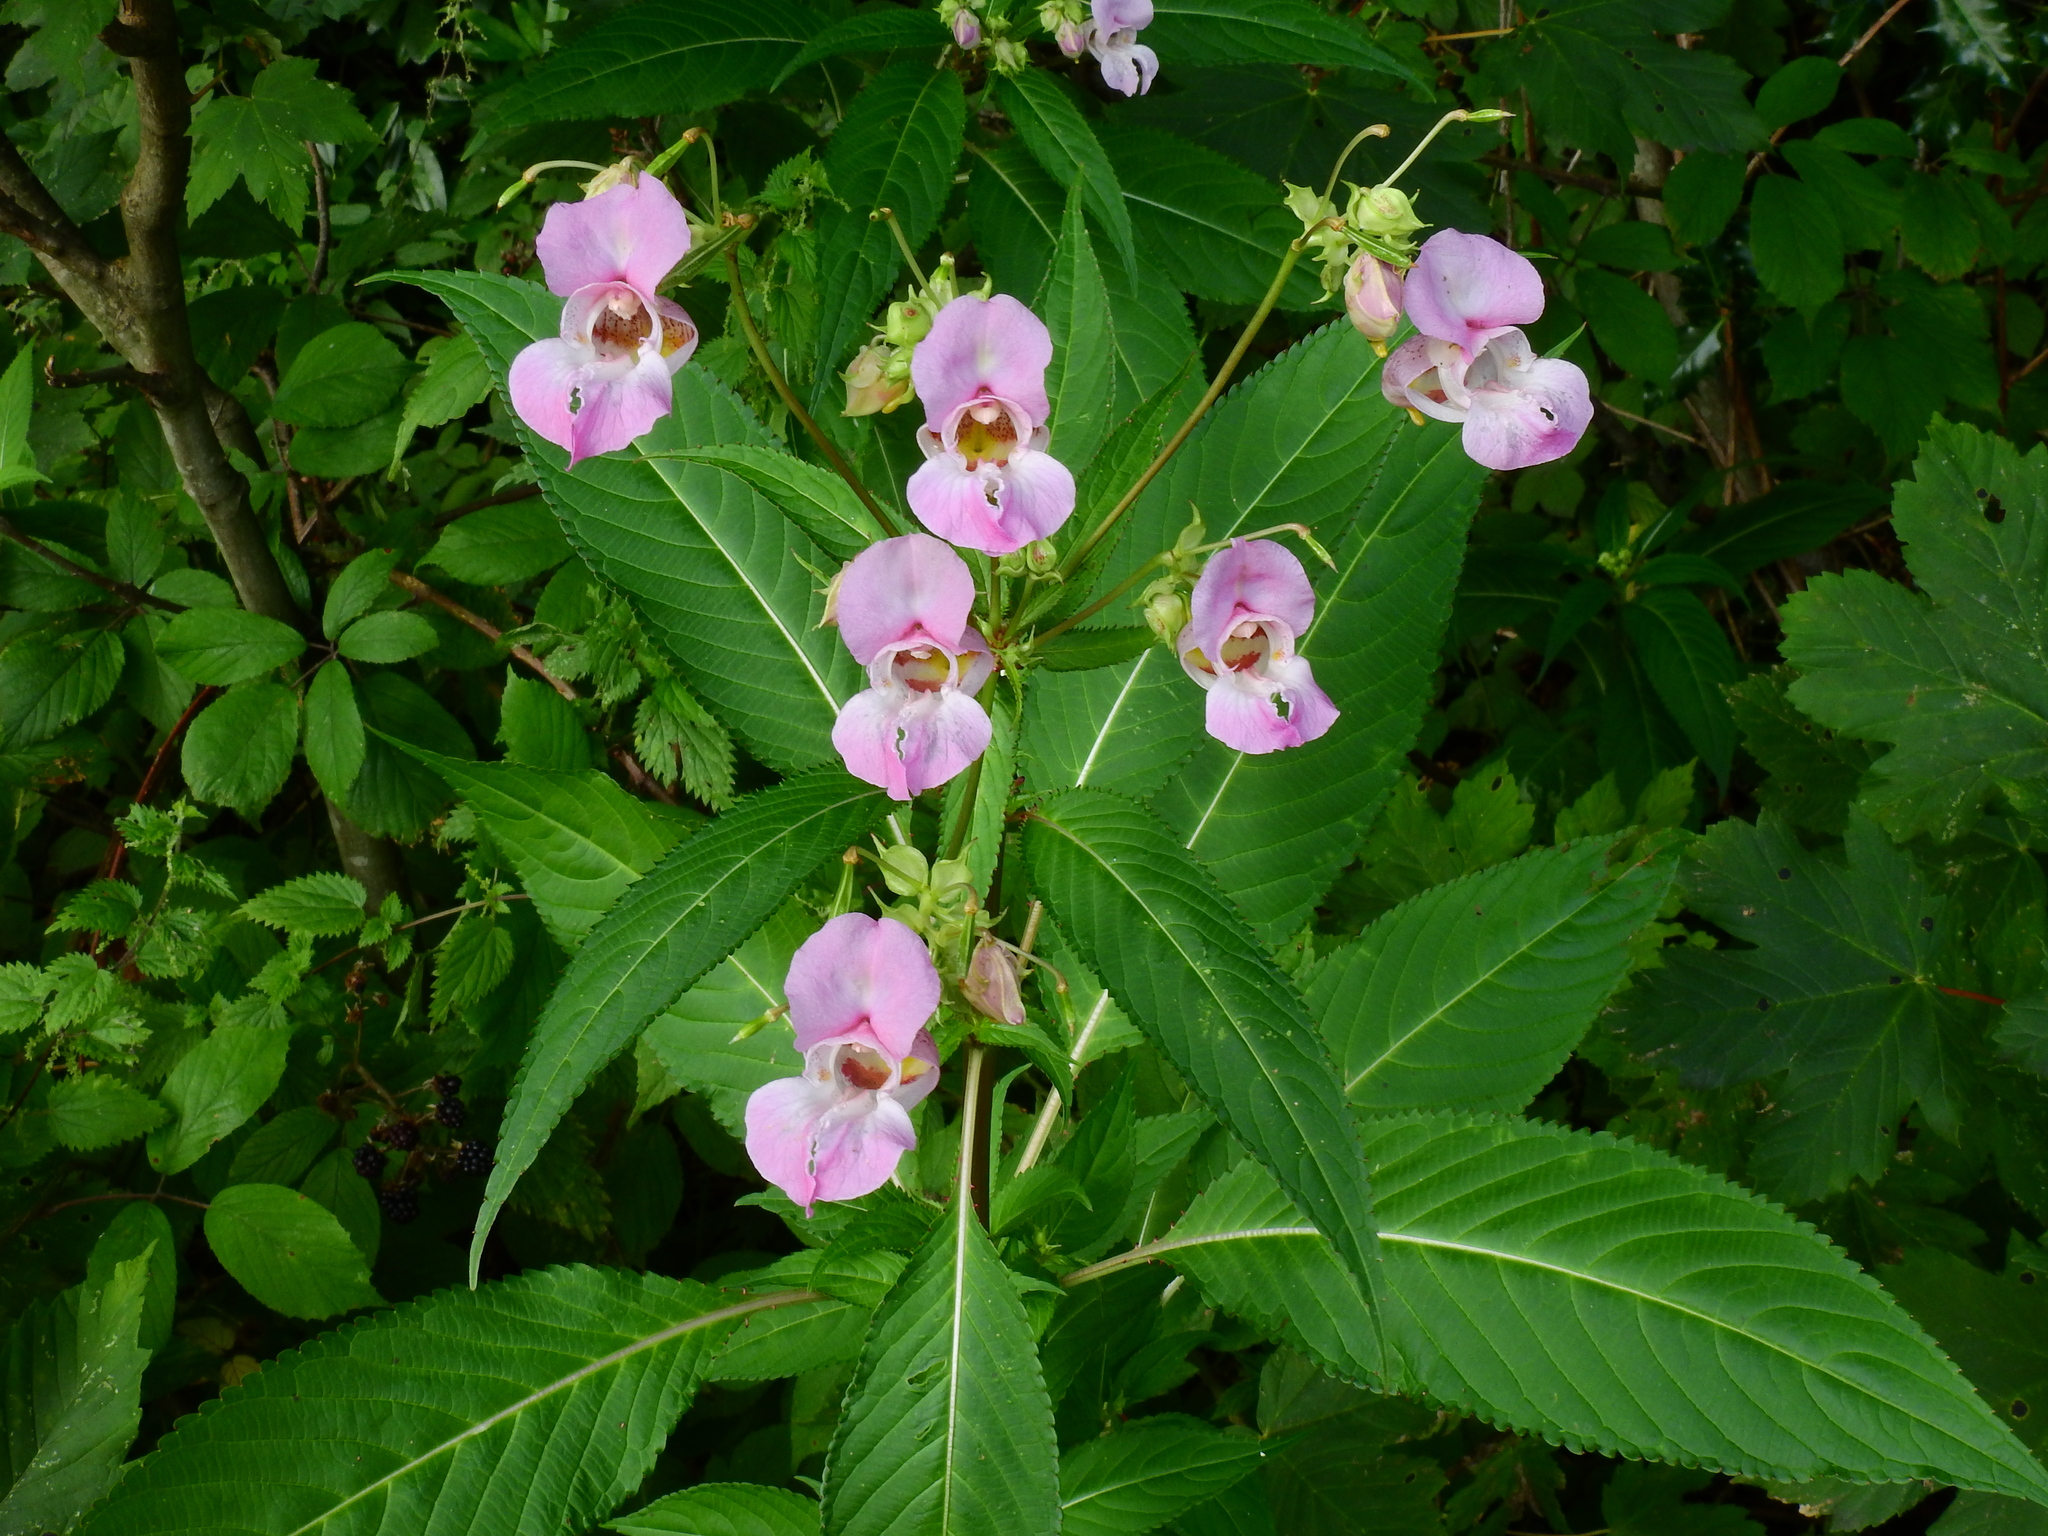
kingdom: Plantae
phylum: Tracheophyta
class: Magnoliopsida
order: Ericales
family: Balsaminaceae
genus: Impatiens
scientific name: Impatiens glandulifera
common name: Himalayan balsam
